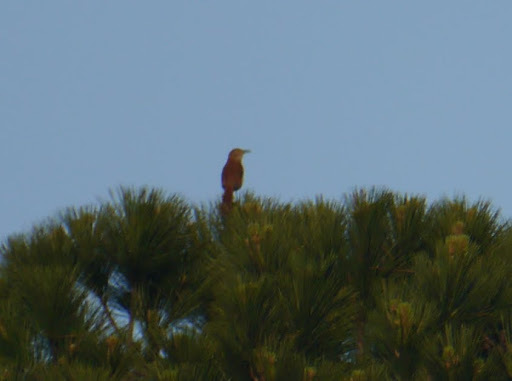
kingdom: Animalia
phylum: Chordata
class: Aves
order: Passeriformes
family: Mimidae
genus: Toxostoma
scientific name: Toxostoma rufum
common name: Brown thrasher
